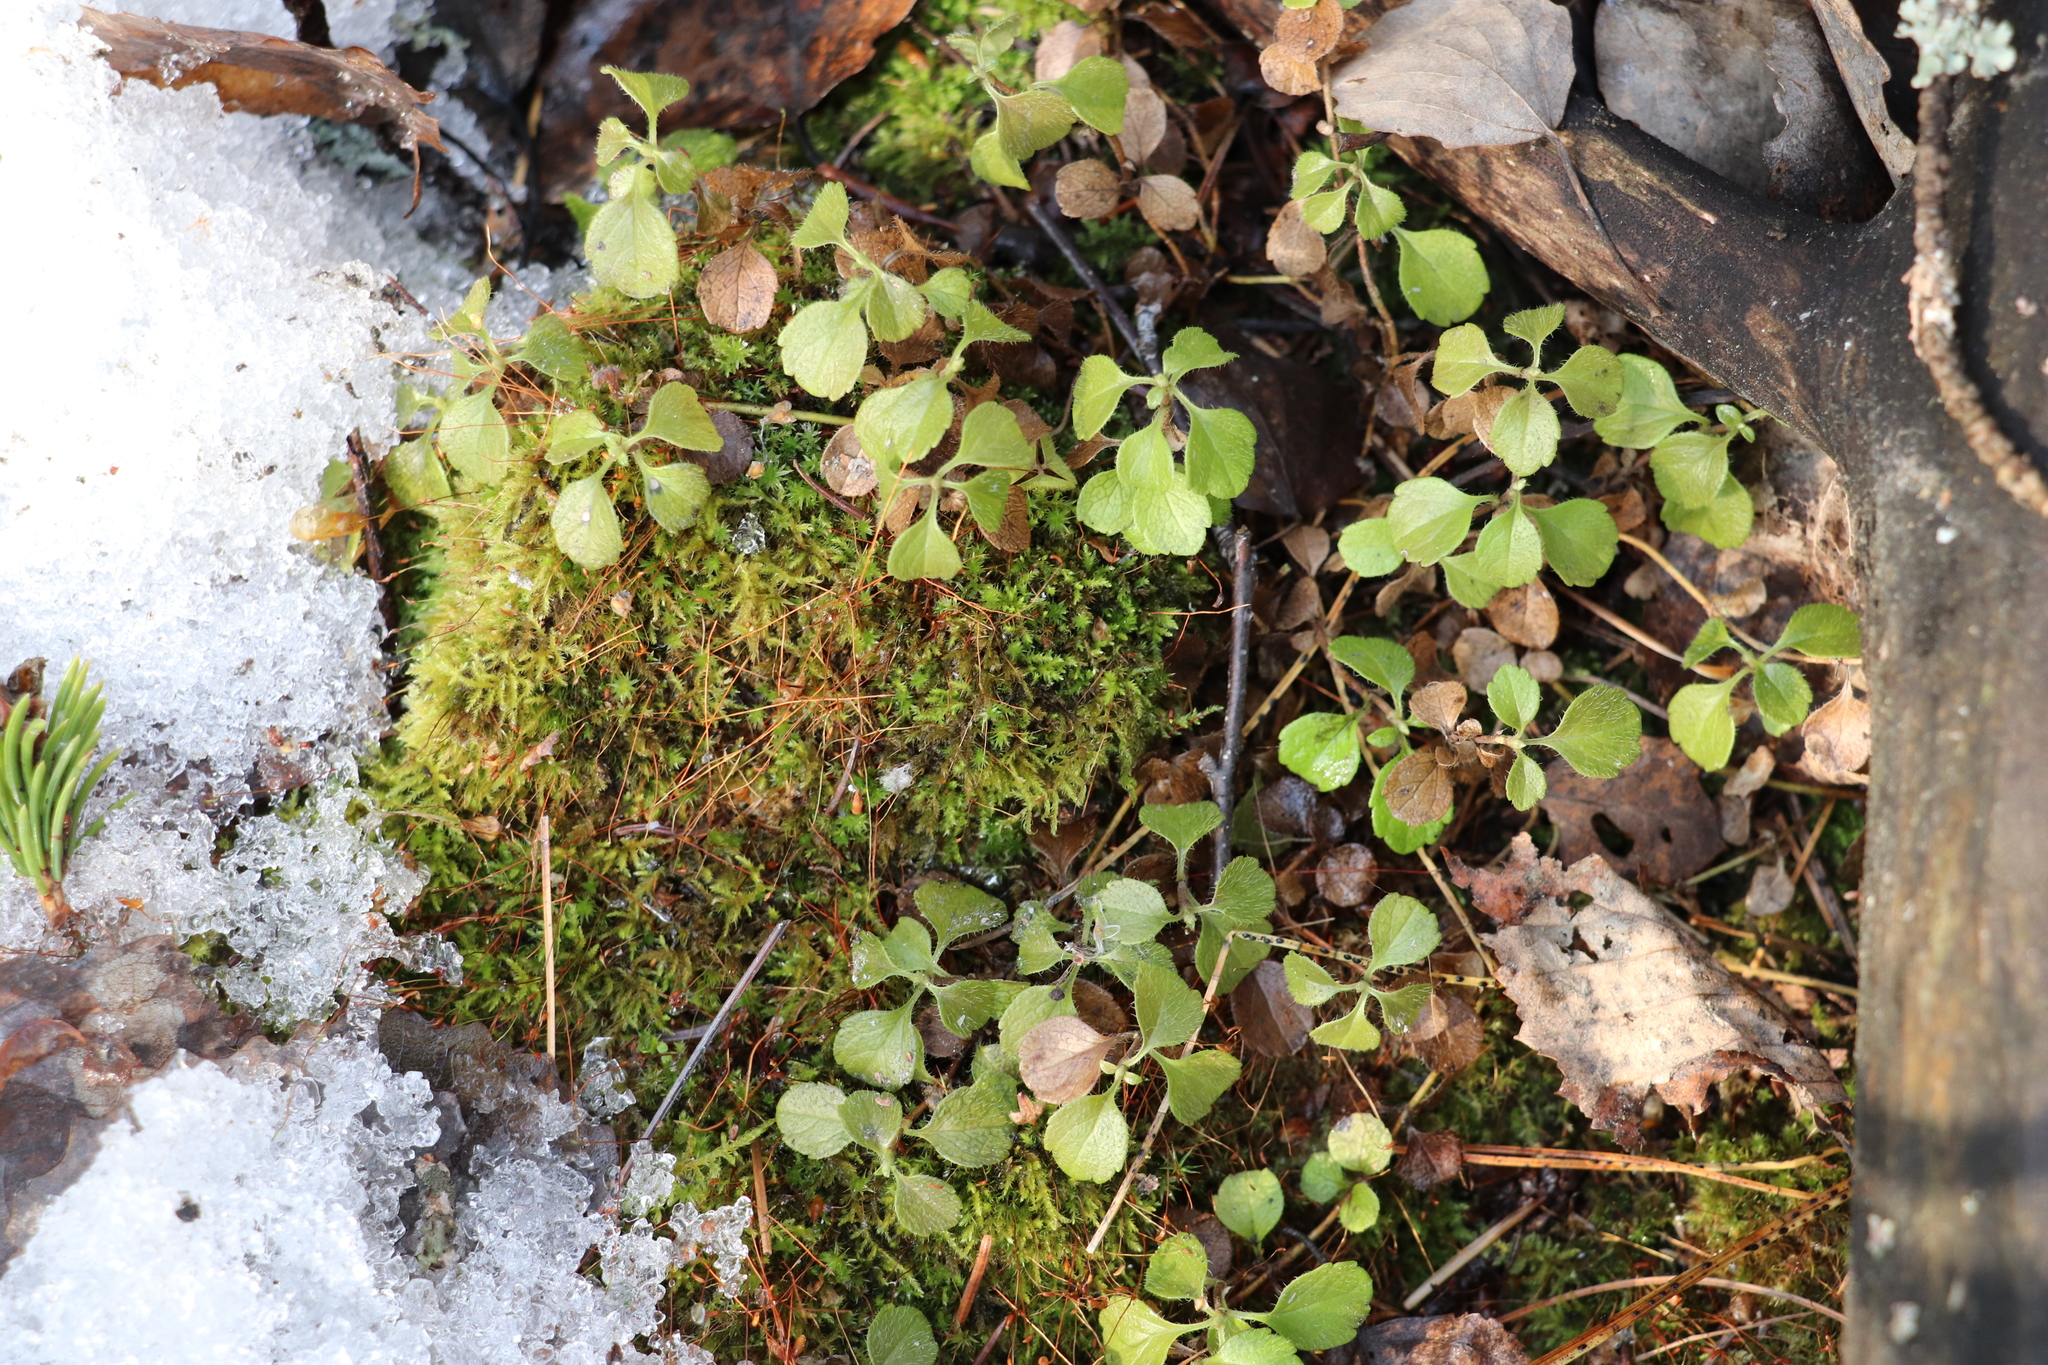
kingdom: Plantae
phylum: Tracheophyta
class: Magnoliopsida
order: Dipsacales
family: Caprifoliaceae
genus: Linnaea
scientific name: Linnaea borealis
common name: Twinflower
